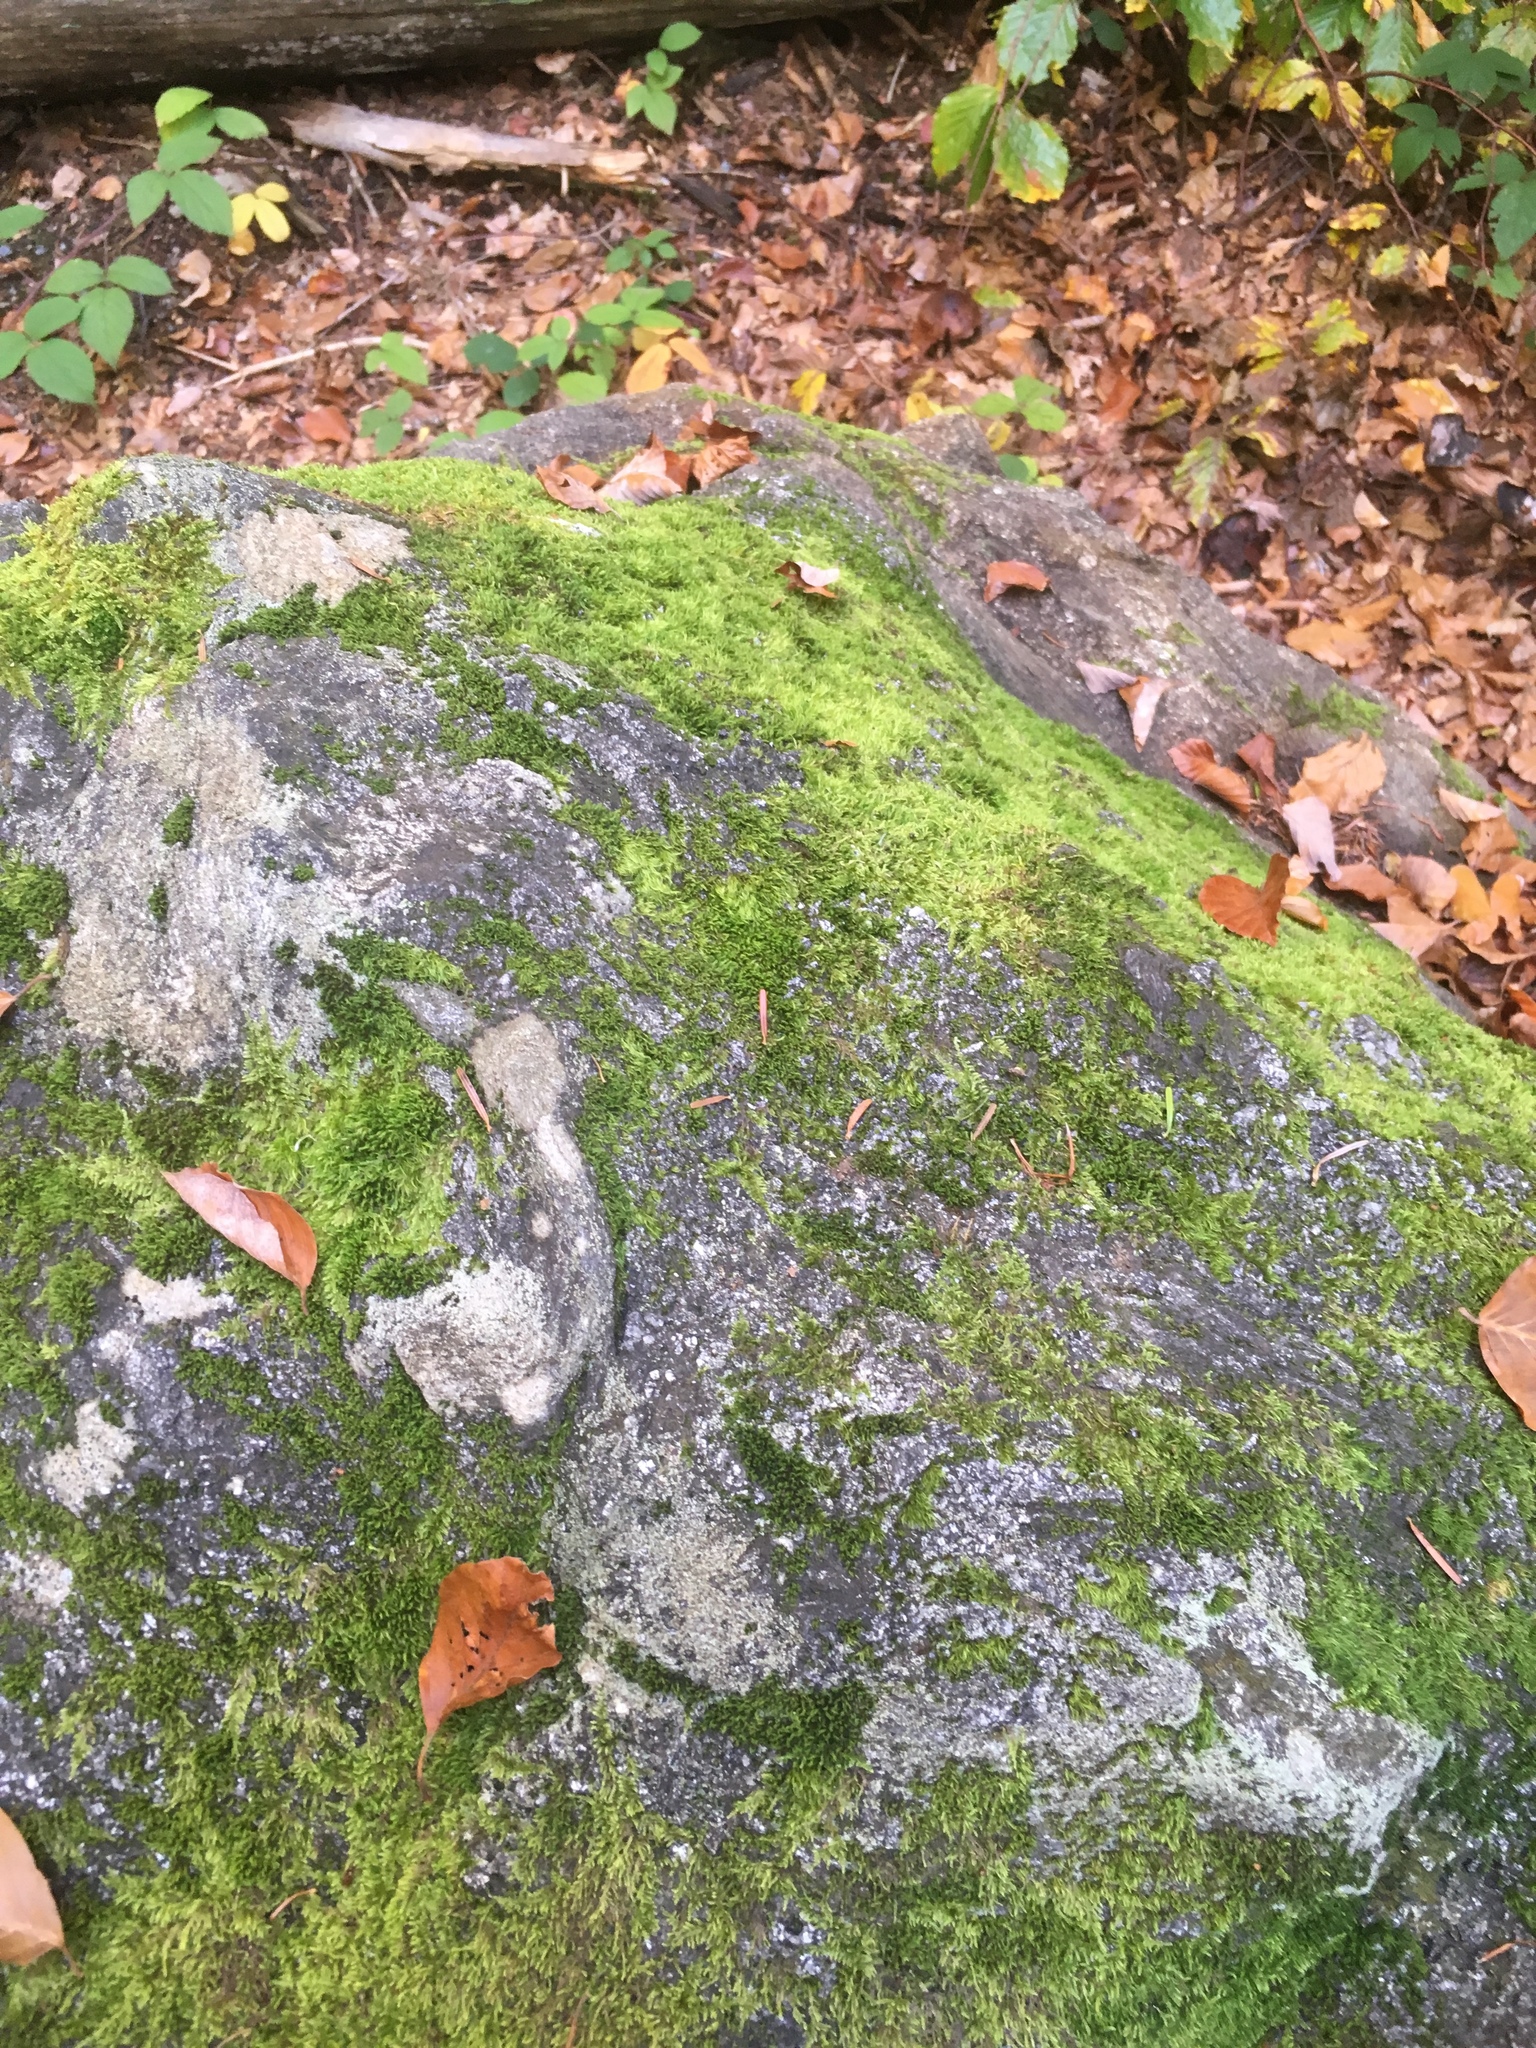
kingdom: Plantae
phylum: Bryophyta
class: Bryopsida
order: Hypnales
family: Hypnaceae
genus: Hypnum
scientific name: Hypnum cupressiforme
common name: Cypress-leaved plait-moss
